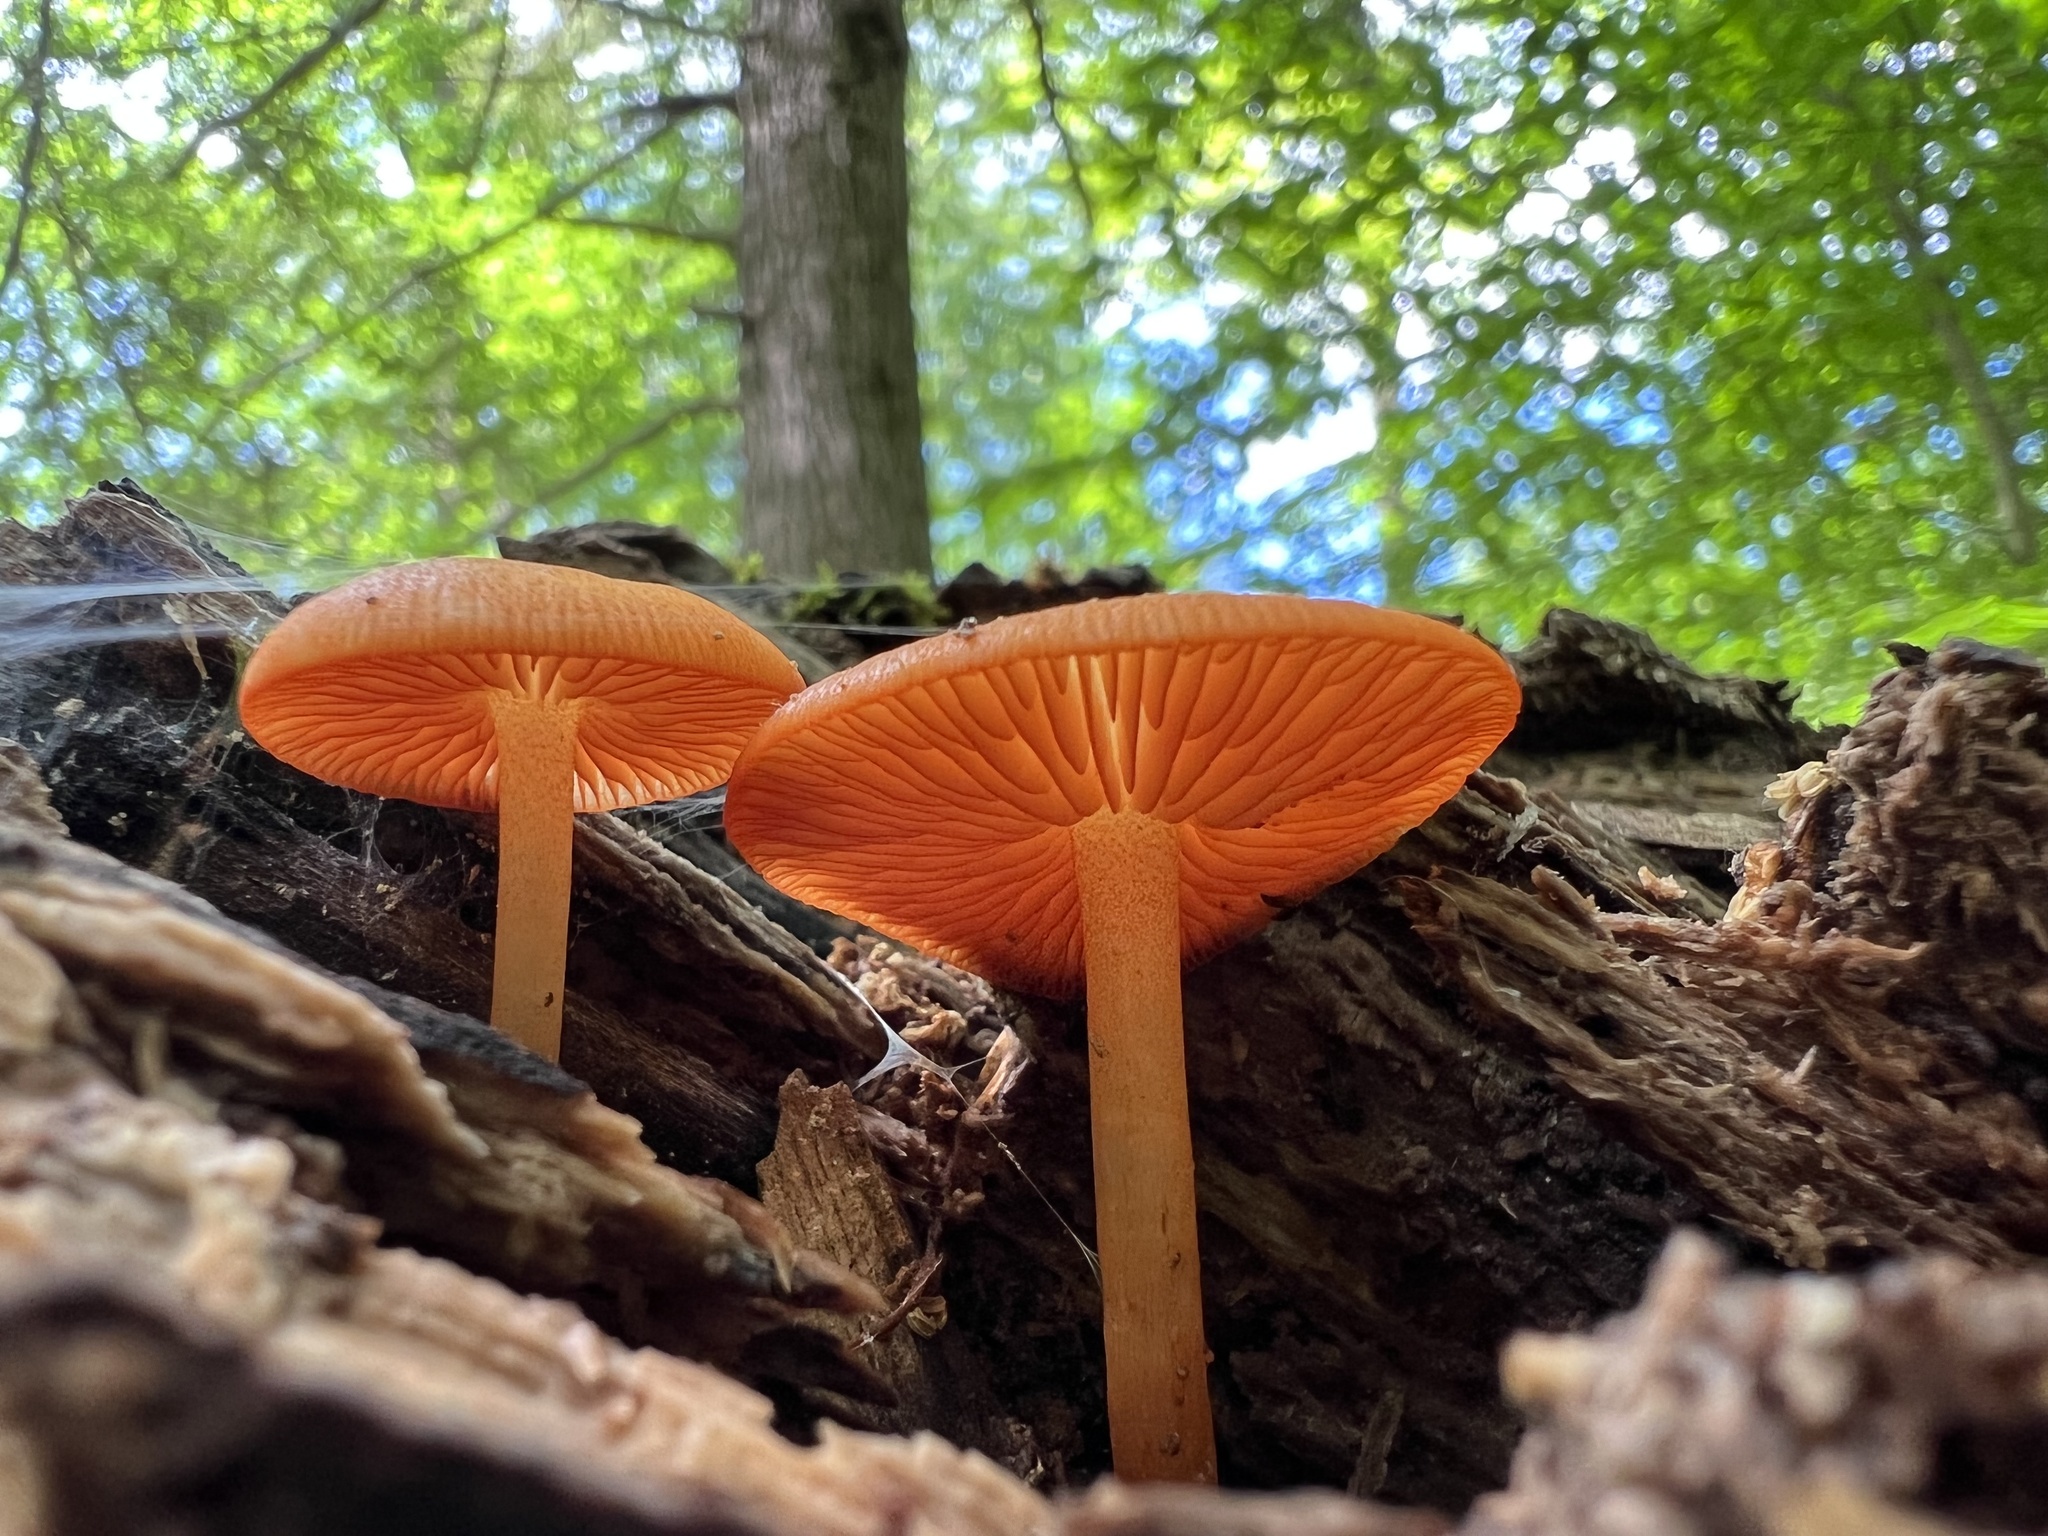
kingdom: Fungi
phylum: Basidiomycota
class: Agaricomycetes
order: Agaricales
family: Mycenaceae
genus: Mycena
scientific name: Mycena leaiana
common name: Orange mycena
